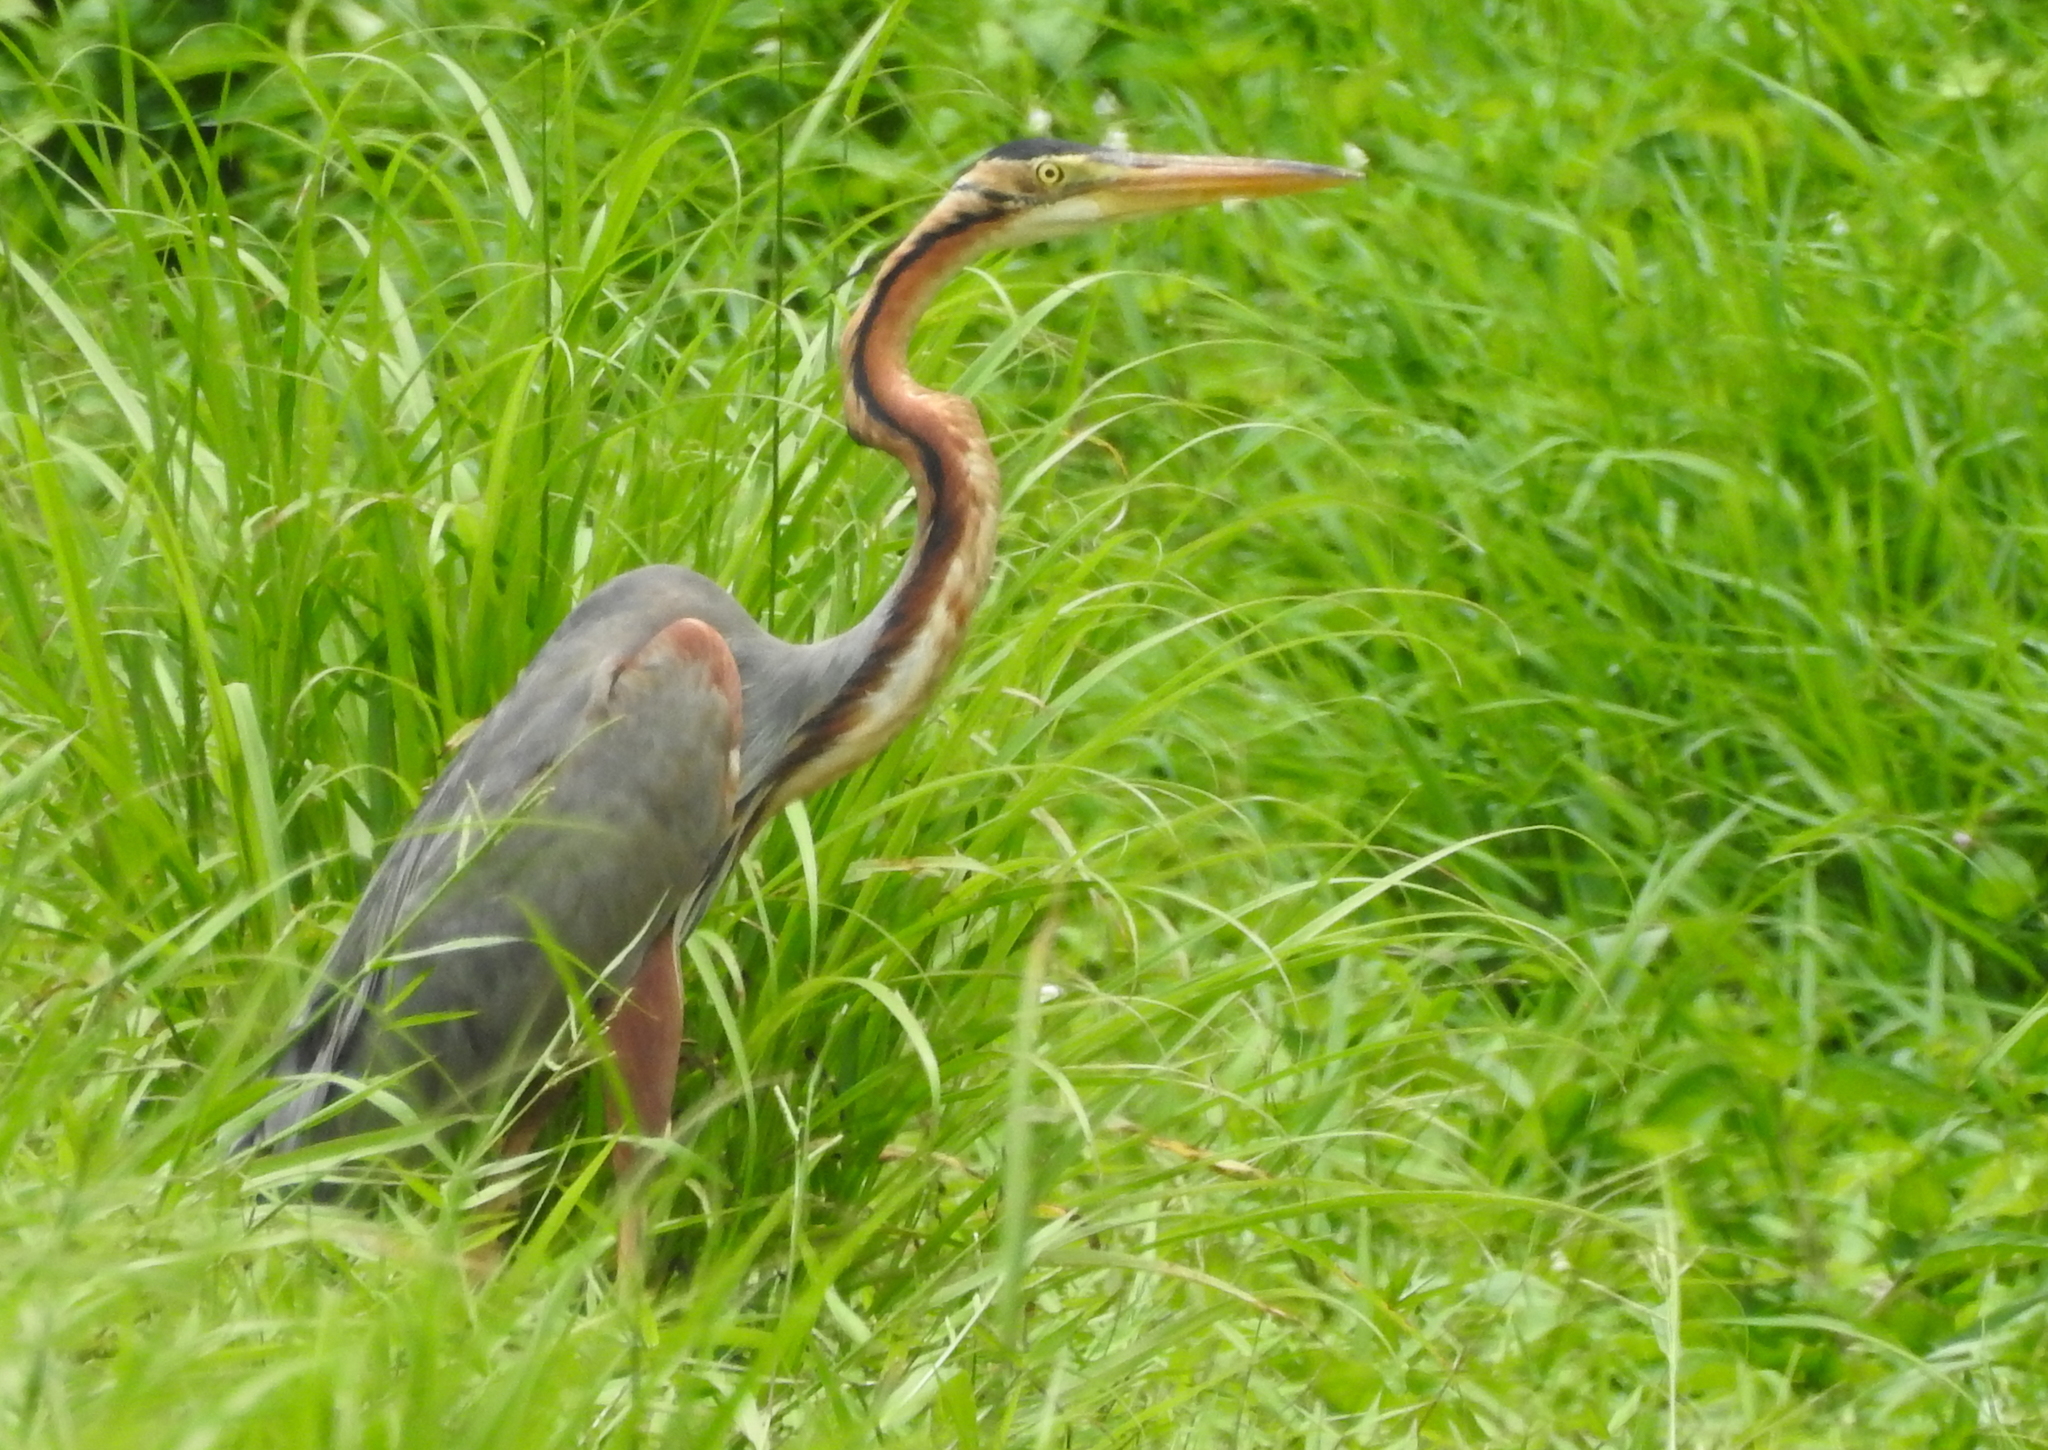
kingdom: Animalia
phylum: Chordata
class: Aves
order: Pelecaniformes
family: Ardeidae
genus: Ardea
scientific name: Ardea purpurea
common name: Purple heron
